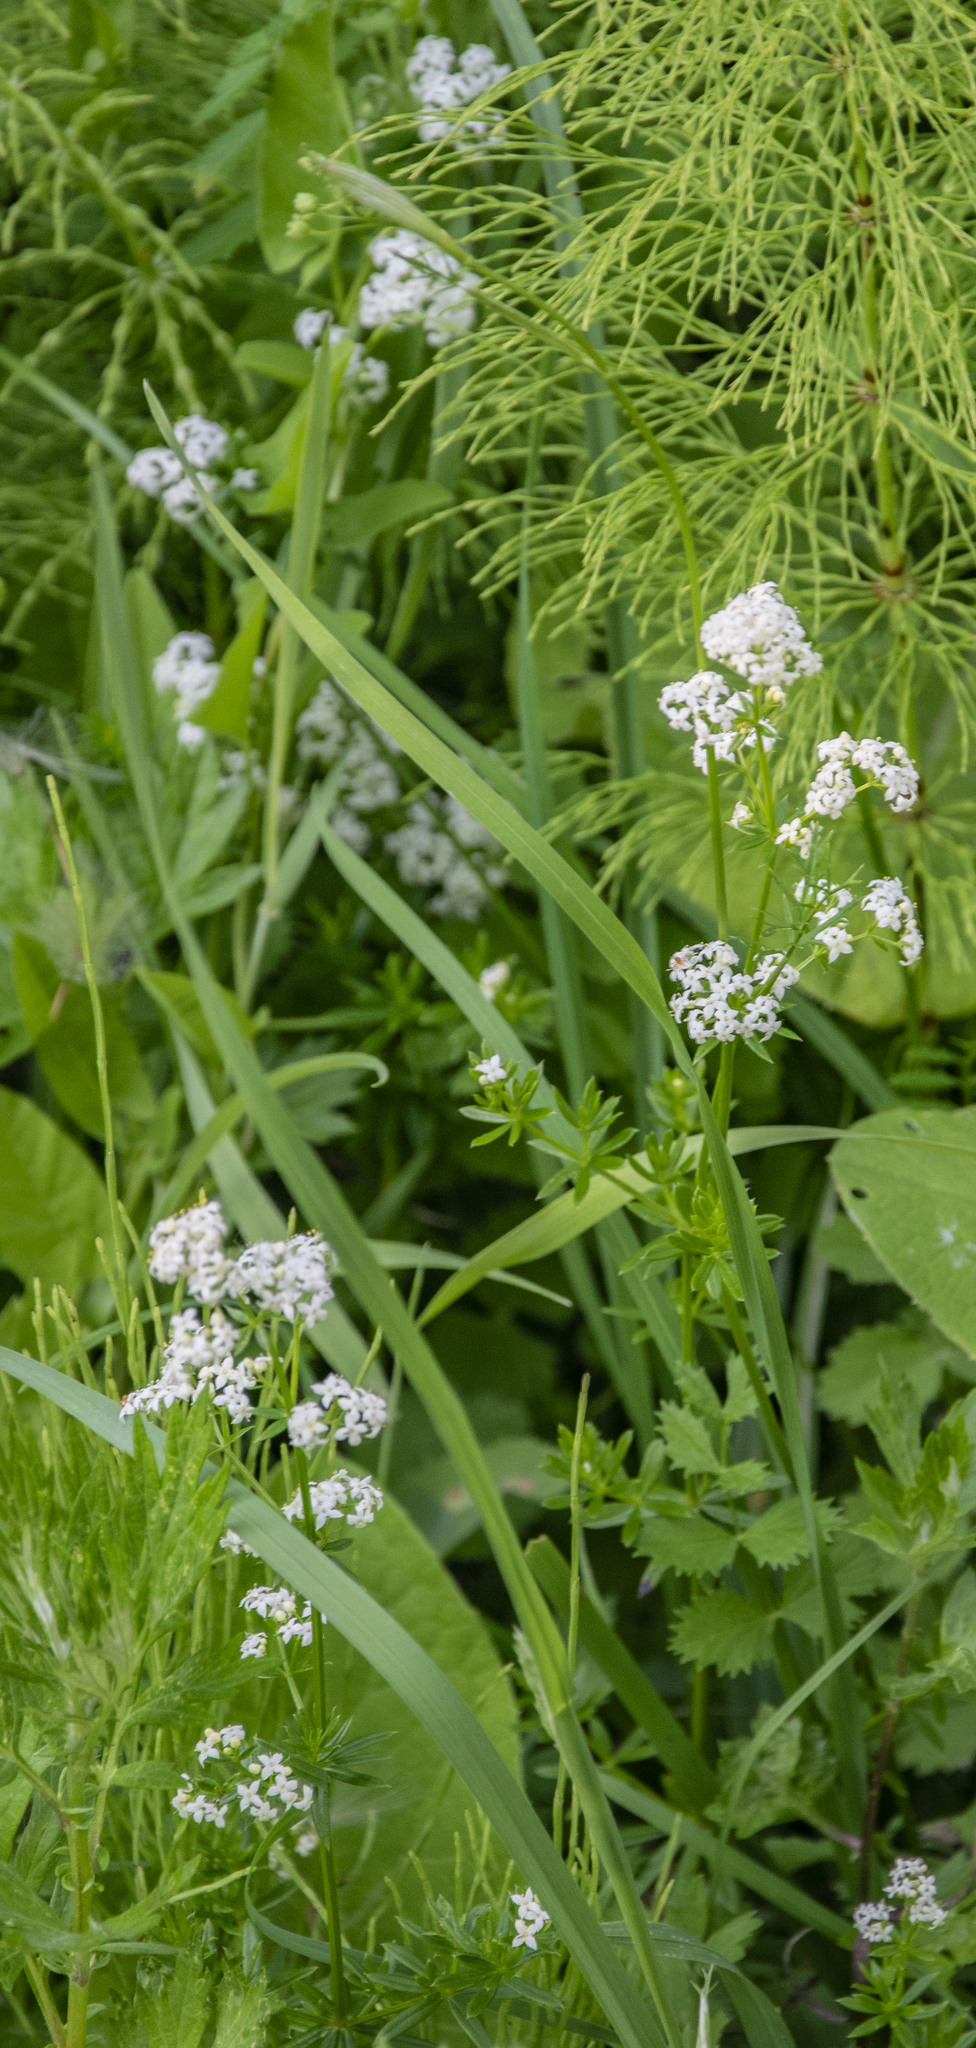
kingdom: Plantae
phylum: Tracheophyta
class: Magnoliopsida
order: Gentianales
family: Rubiaceae
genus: Galium
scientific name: Galium mollugo
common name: Hedge bedstraw
